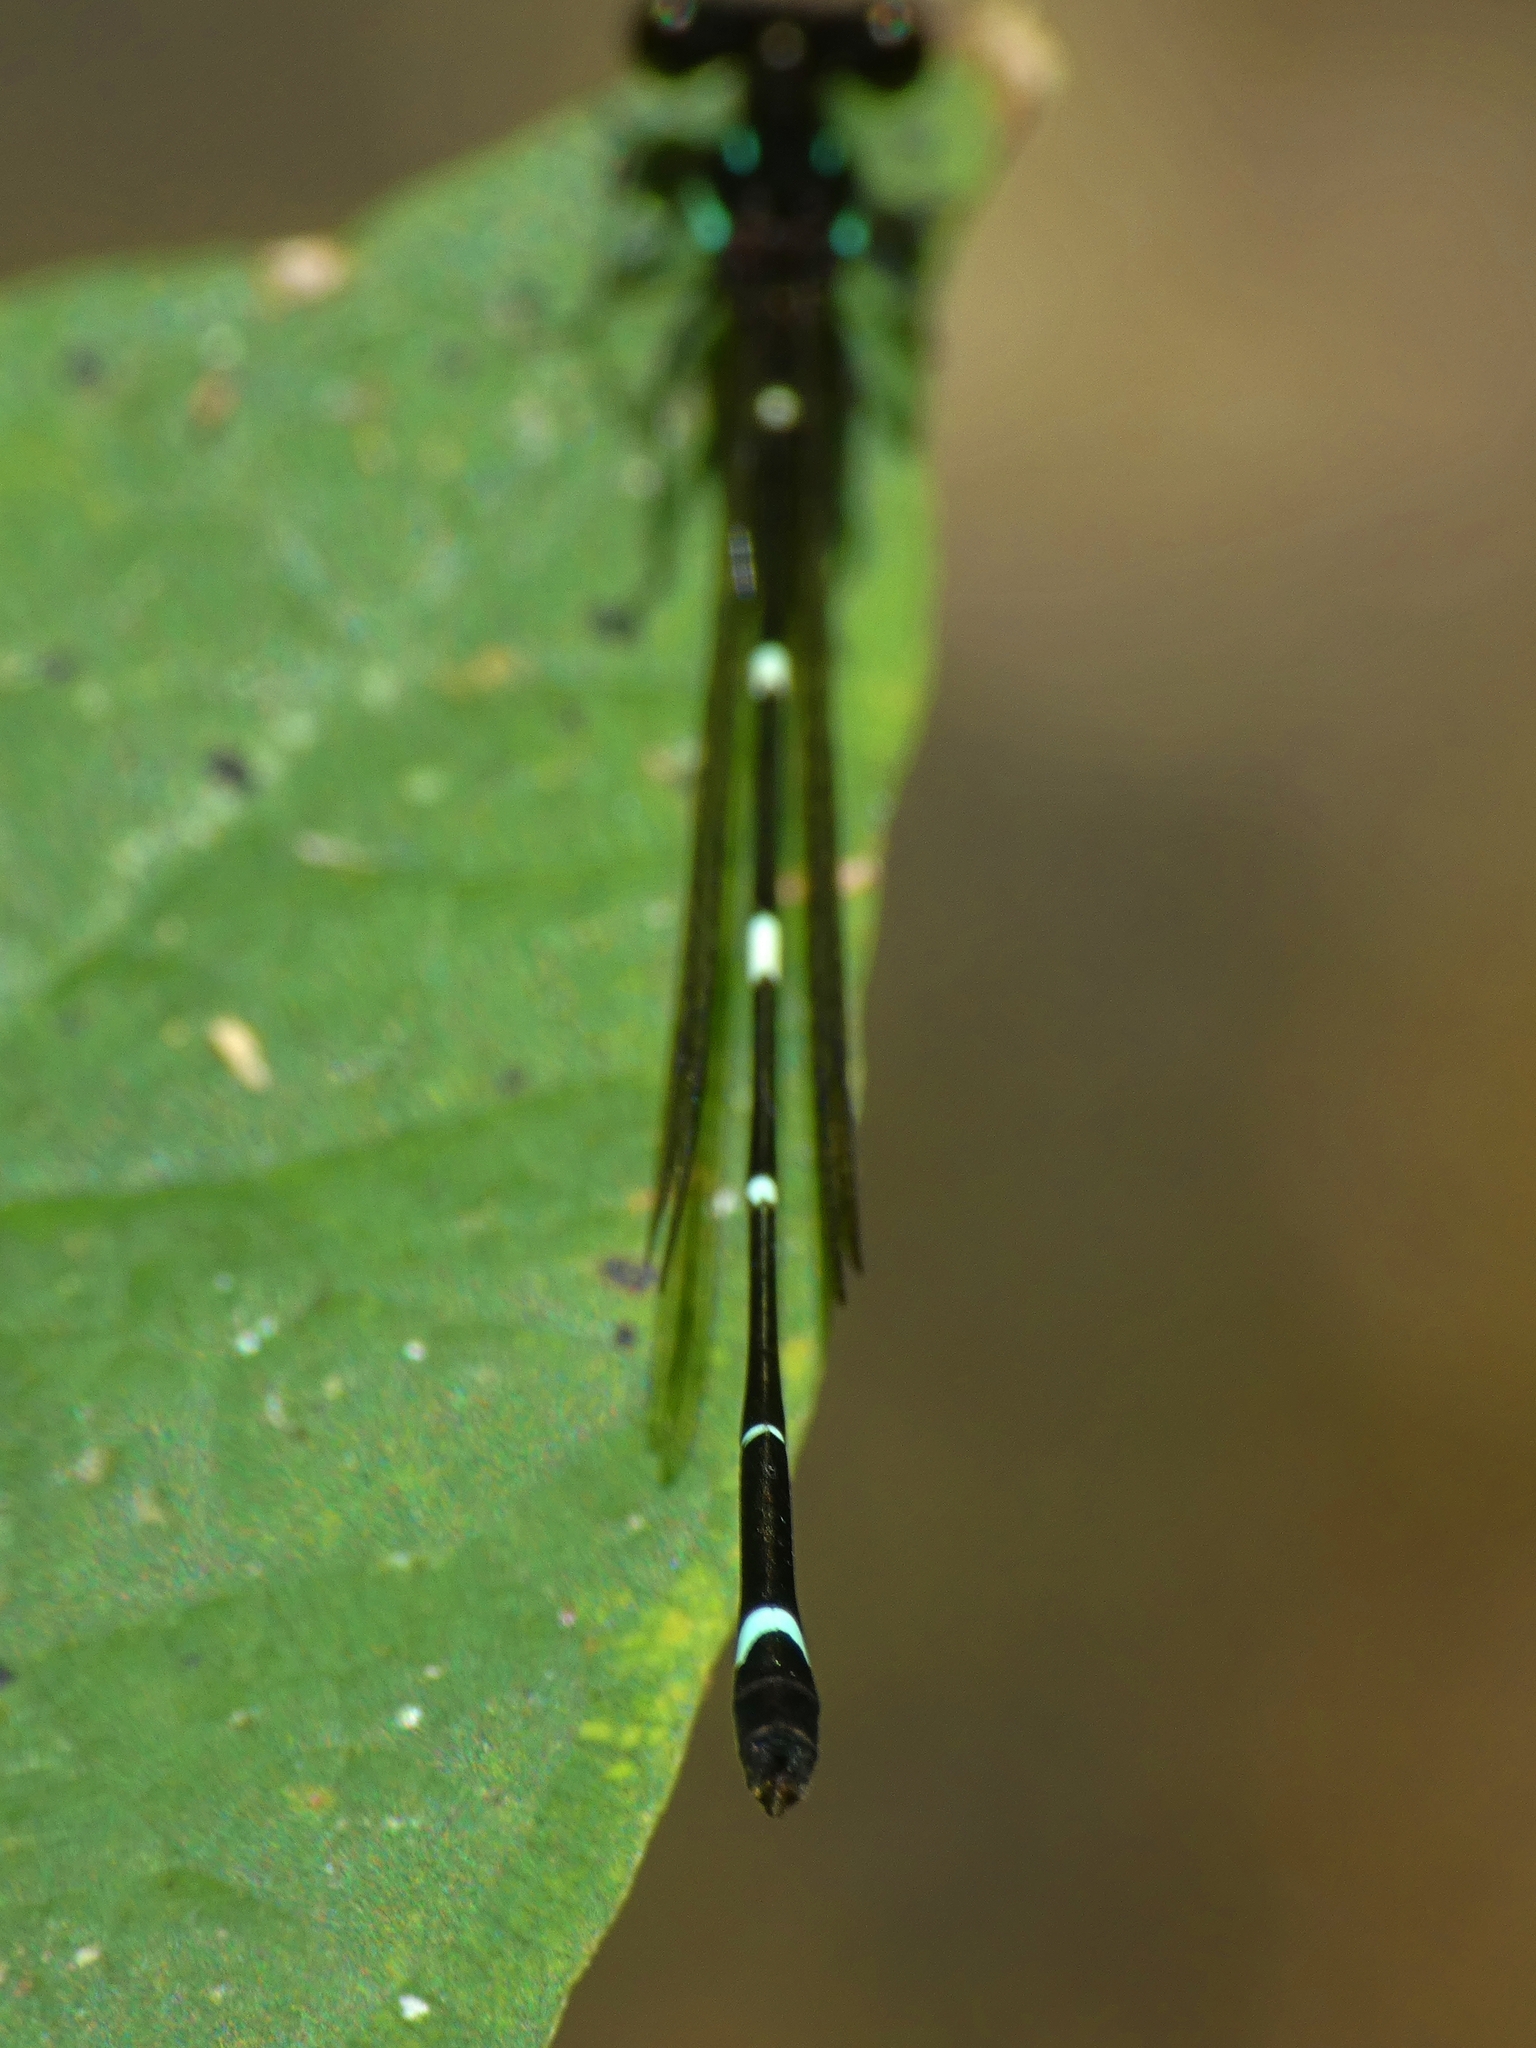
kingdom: Animalia
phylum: Arthropoda
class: Insecta
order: Odonata
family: Platycnemididae
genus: Nososticta
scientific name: Nososticta solitaria
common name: Fivespot threadtail
